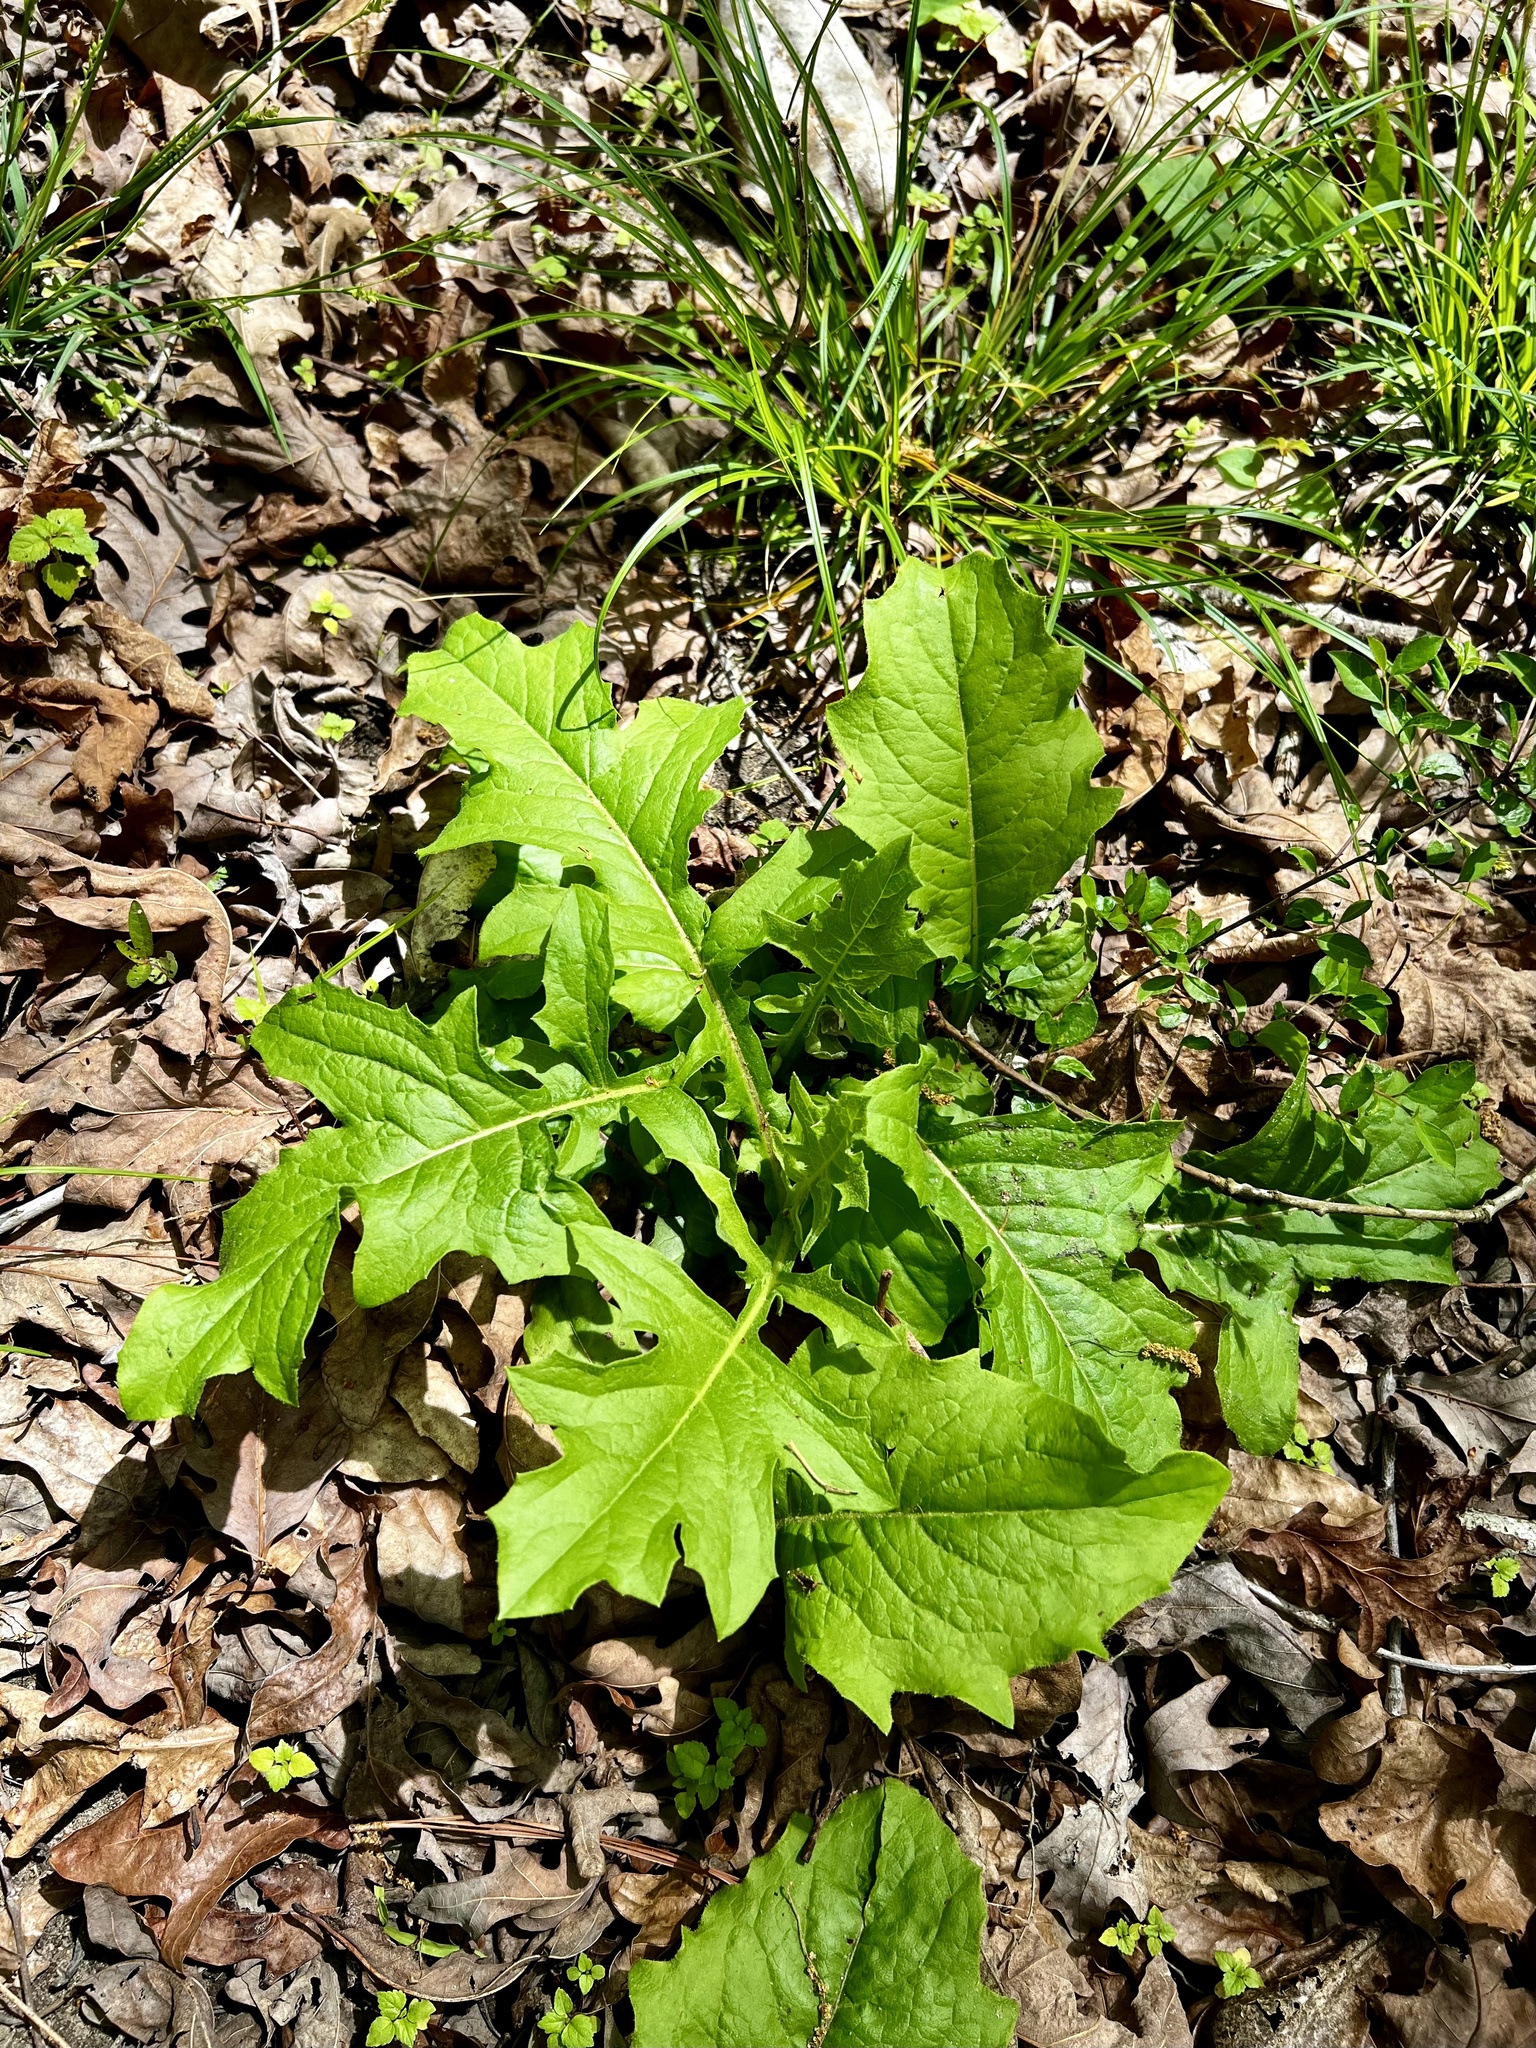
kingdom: Plantae
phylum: Tracheophyta
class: Magnoliopsida
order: Asterales
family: Asteraceae
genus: Nabalus
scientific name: Nabalus barbata
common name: Barbed rattlesnakeroot
